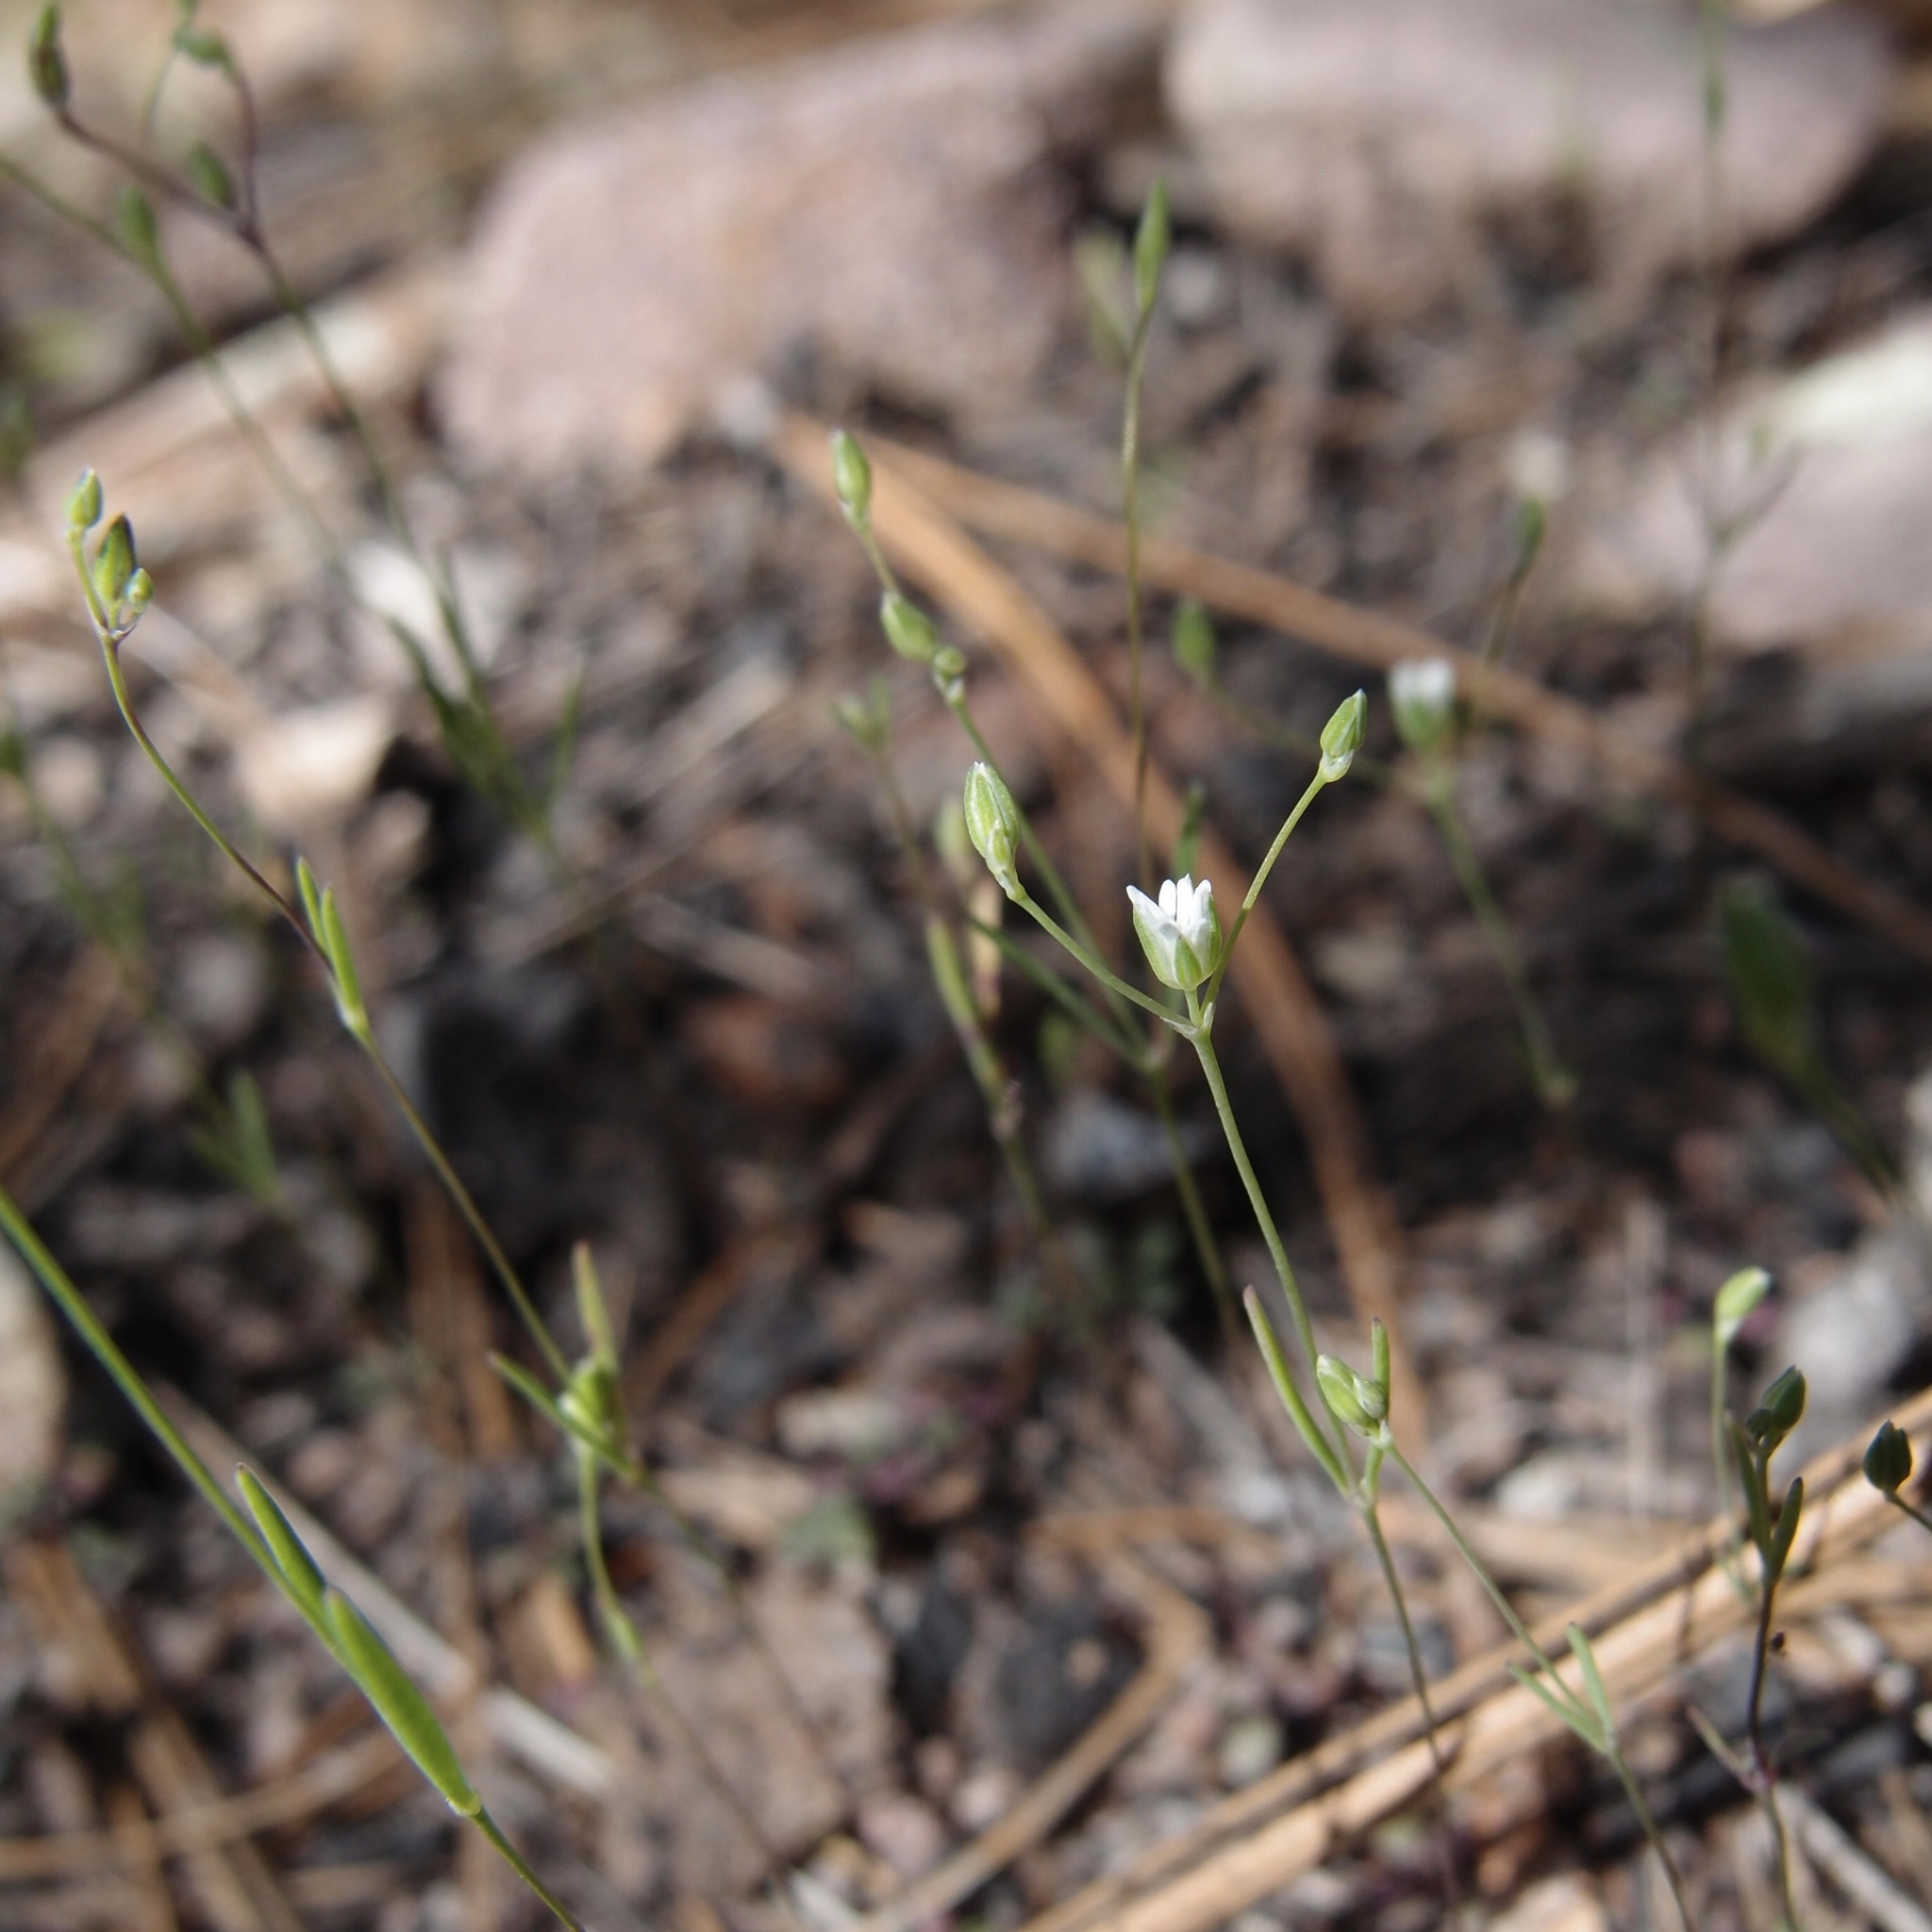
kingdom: Plantae
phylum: Tracheophyta
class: Magnoliopsida
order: Caryophyllales
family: Caryophyllaceae
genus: Drymaria
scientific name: Drymaria leptophylla
